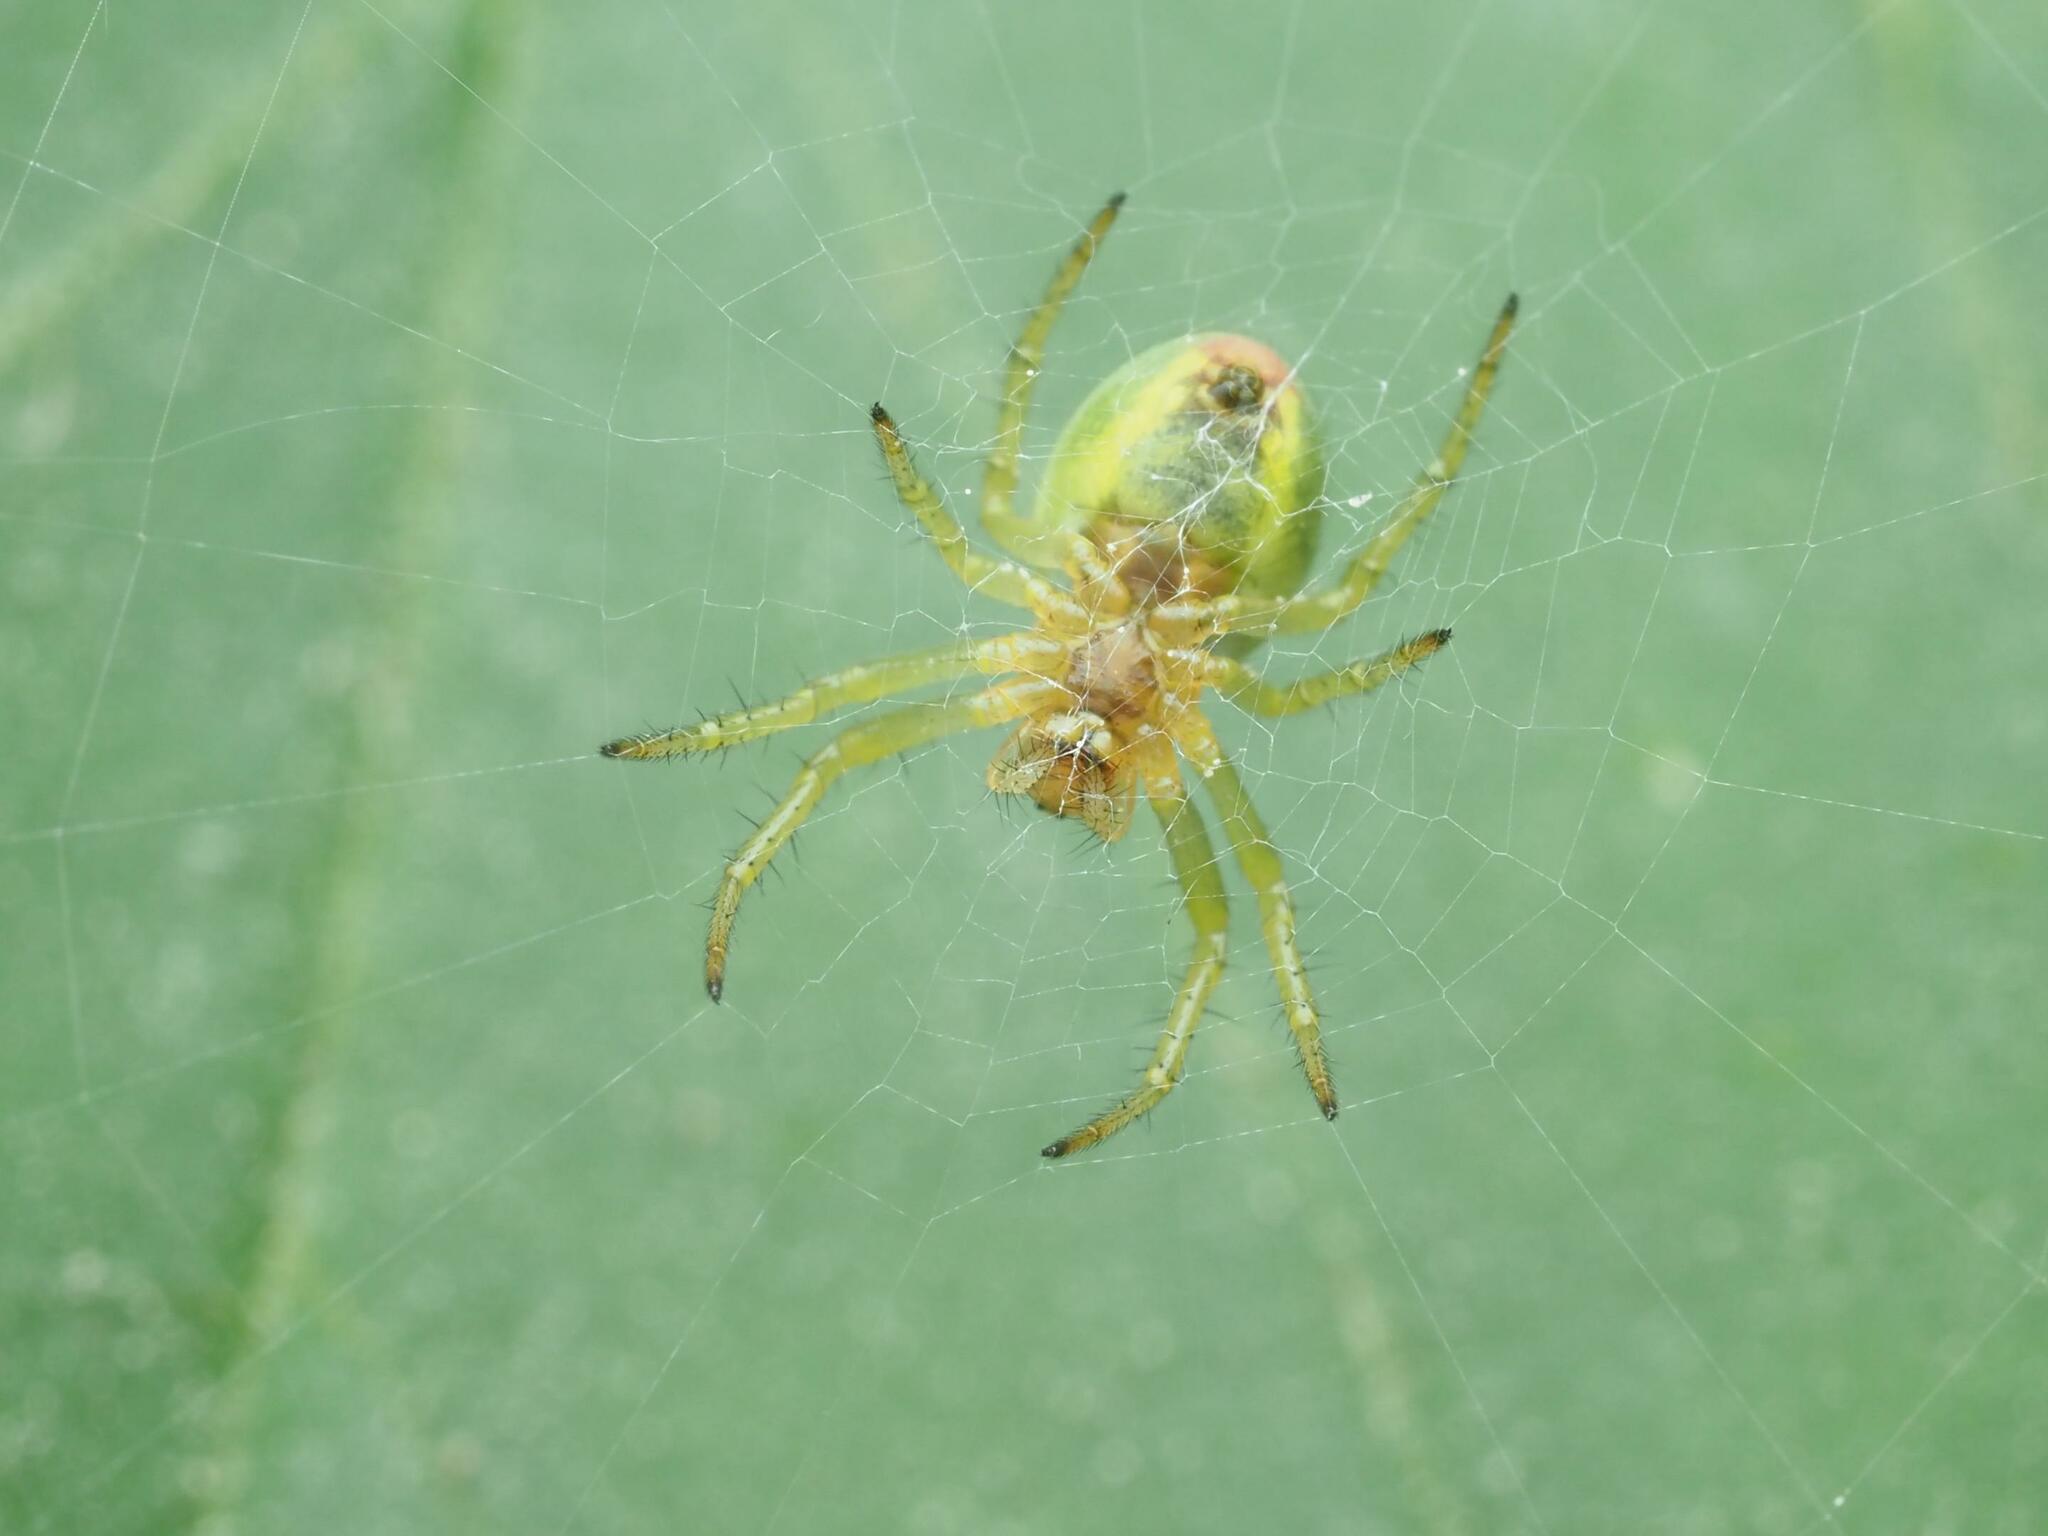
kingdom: Animalia
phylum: Arthropoda
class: Arachnida
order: Araneae
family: Araneidae
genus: Araniella
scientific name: Araniella
